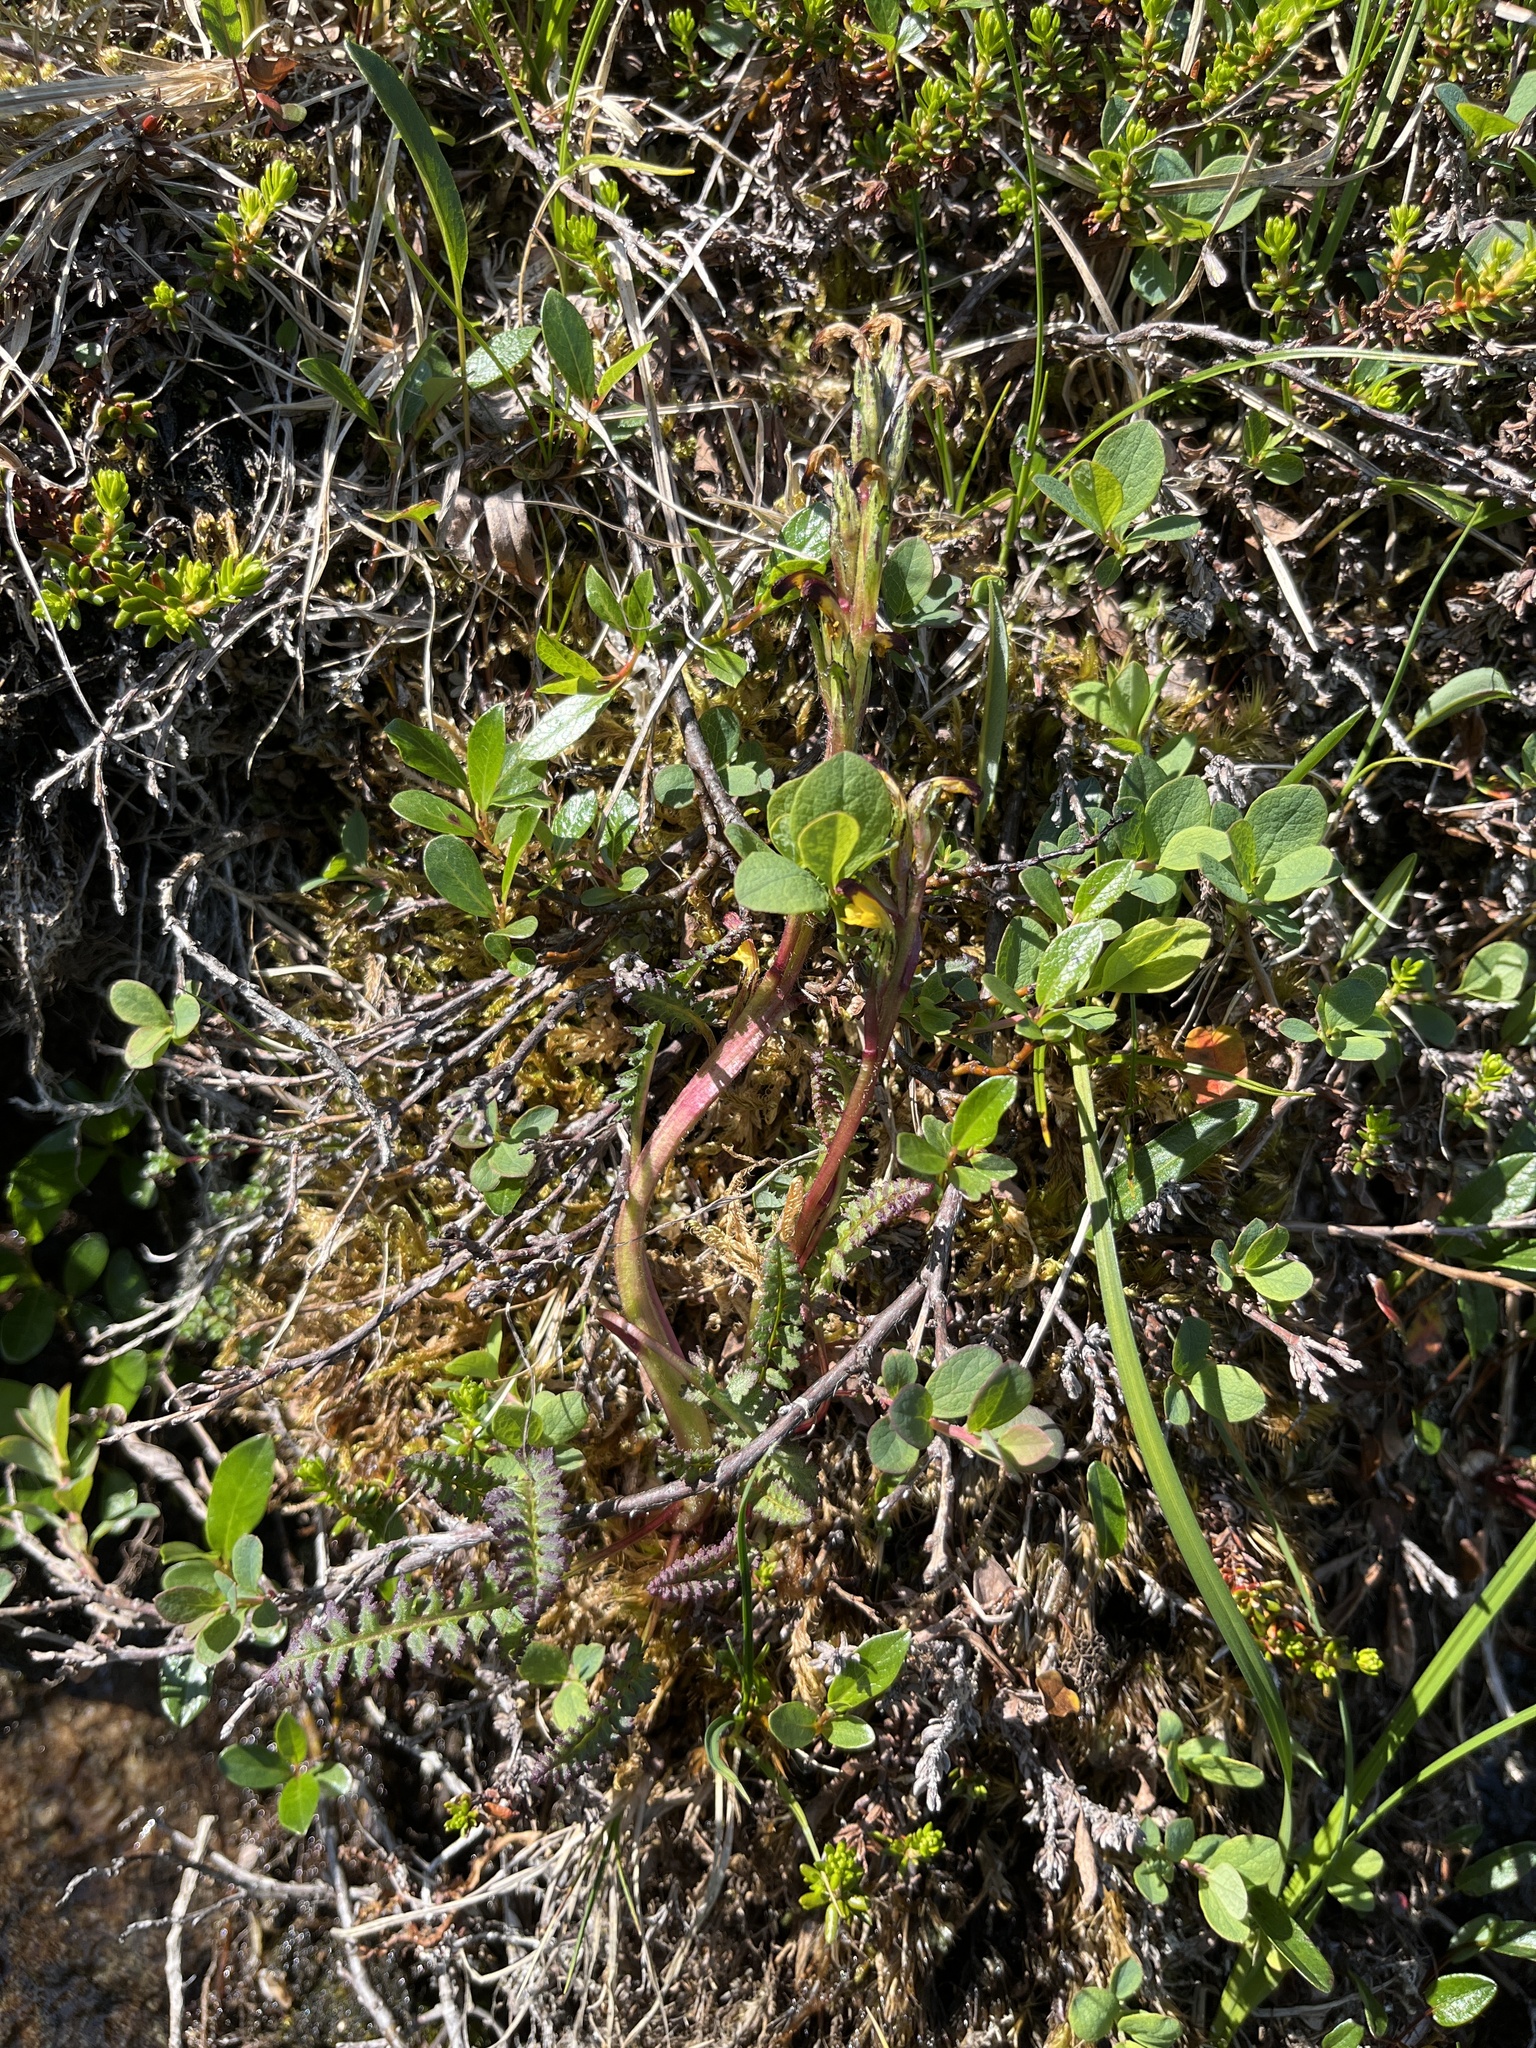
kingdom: Plantae
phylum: Tracheophyta
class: Magnoliopsida
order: Lamiales
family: Orobanchaceae
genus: Pedicularis
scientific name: Pedicularis flammea
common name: Flame-coloured lousewort
